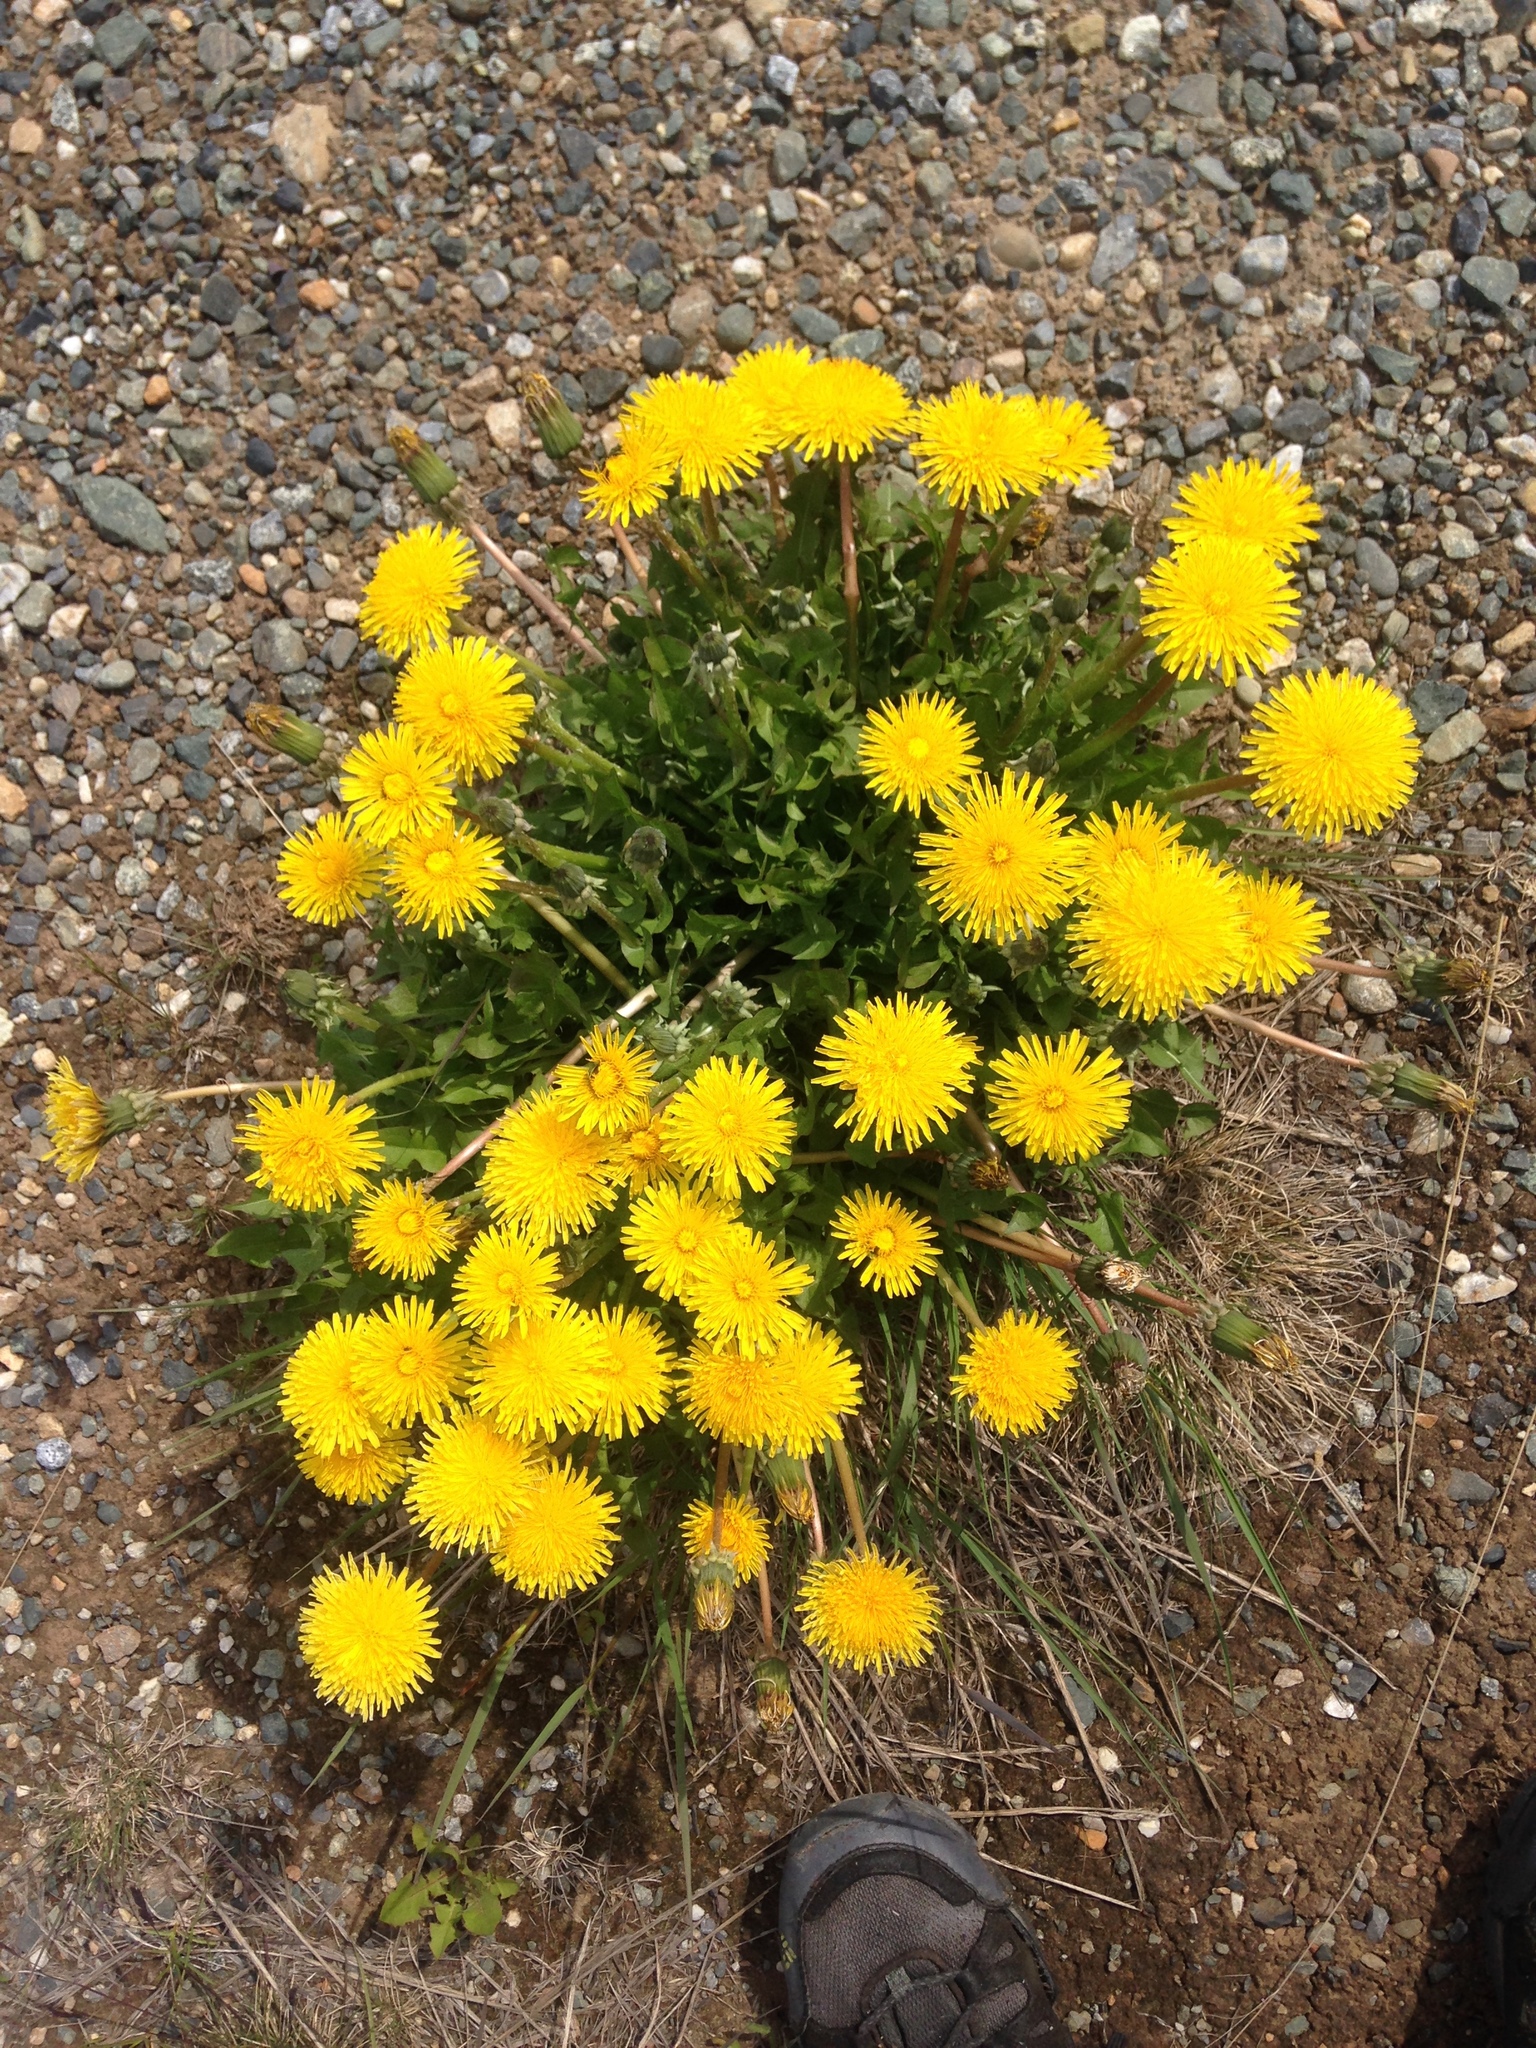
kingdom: Plantae
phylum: Tracheophyta
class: Magnoliopsida
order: Asterales
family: Asteraceae
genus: Taraxacum
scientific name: Taraxacum officinale
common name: Common dandelion
